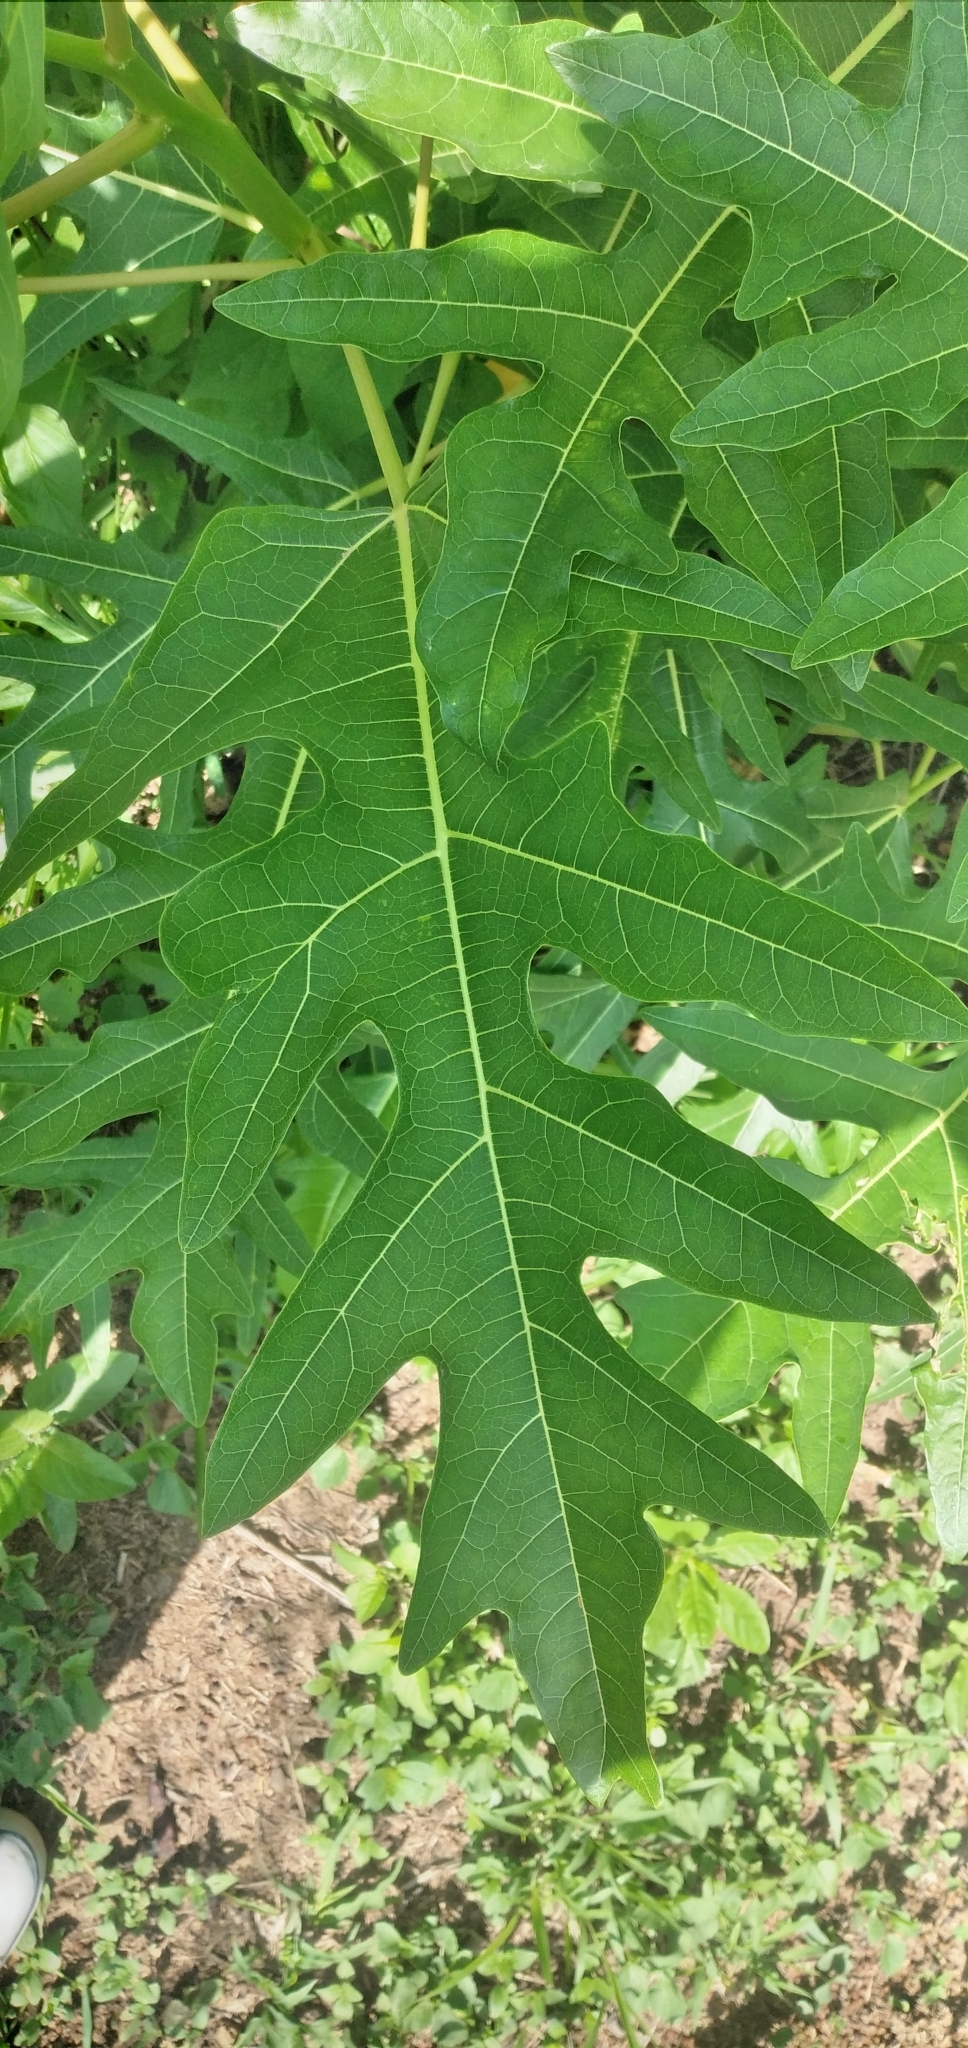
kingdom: Plantae
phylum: Tracheophyta
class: Magnoliopsida
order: Brassicales
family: Caricaceae
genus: Vasconcellea
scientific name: Vasconcellea quercifolia
